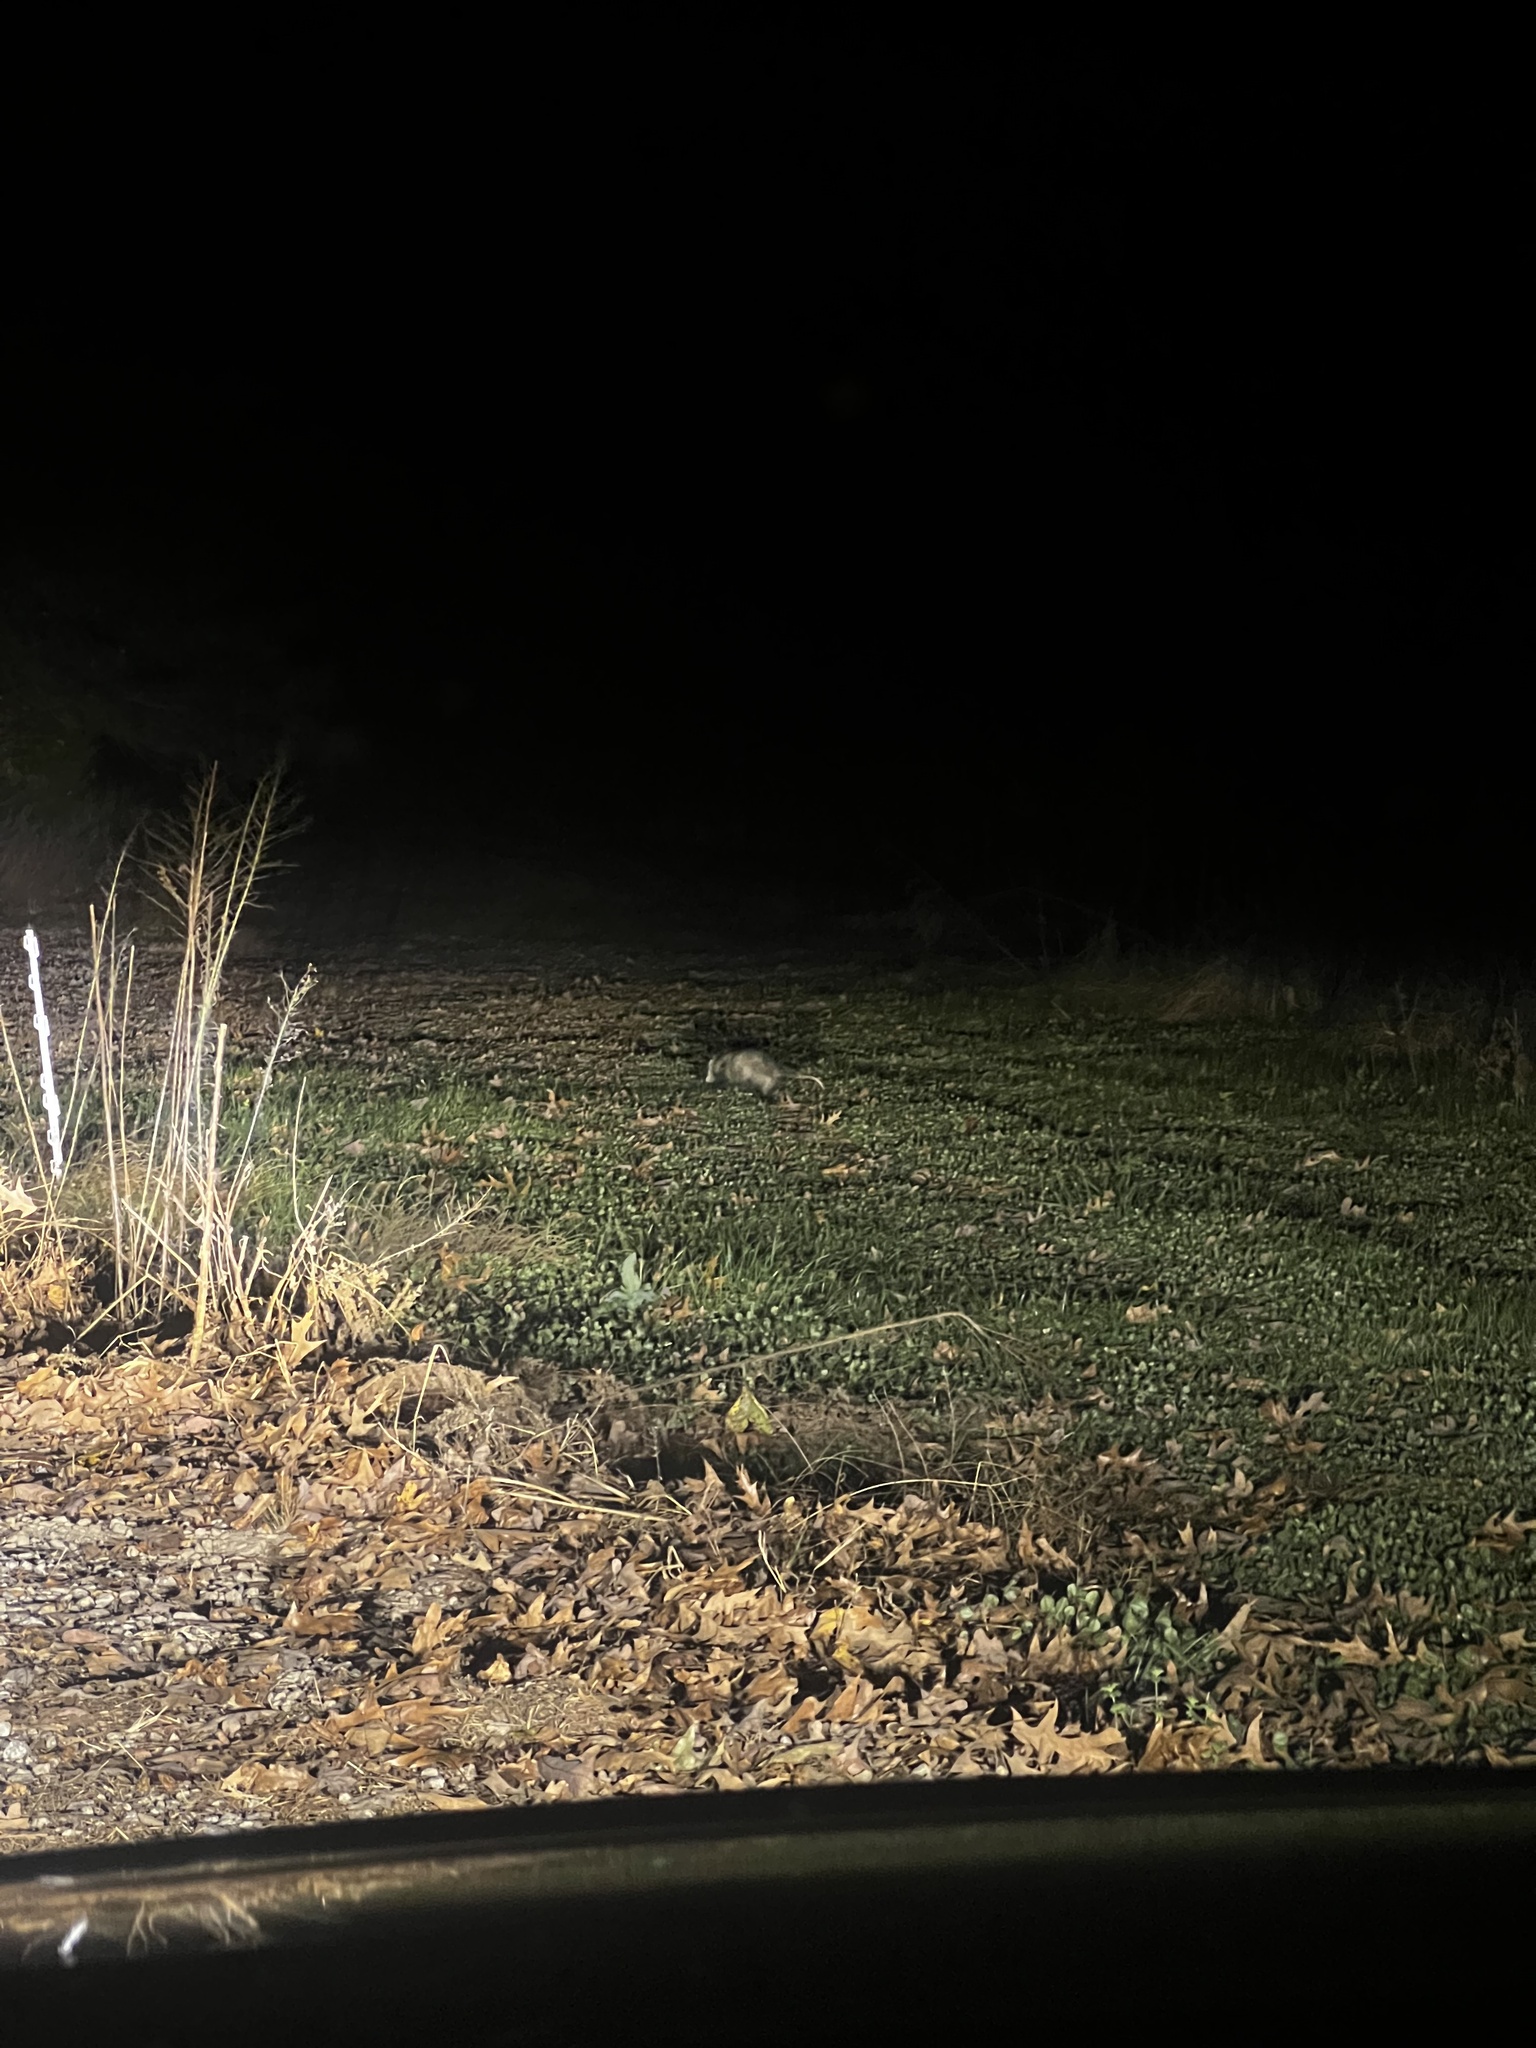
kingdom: Animalia
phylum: Chordata
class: Mammalia
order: Didelphimorphia
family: Didelphidae
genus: Didelphis
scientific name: Didelphis virginiana
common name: Virginia opossum
